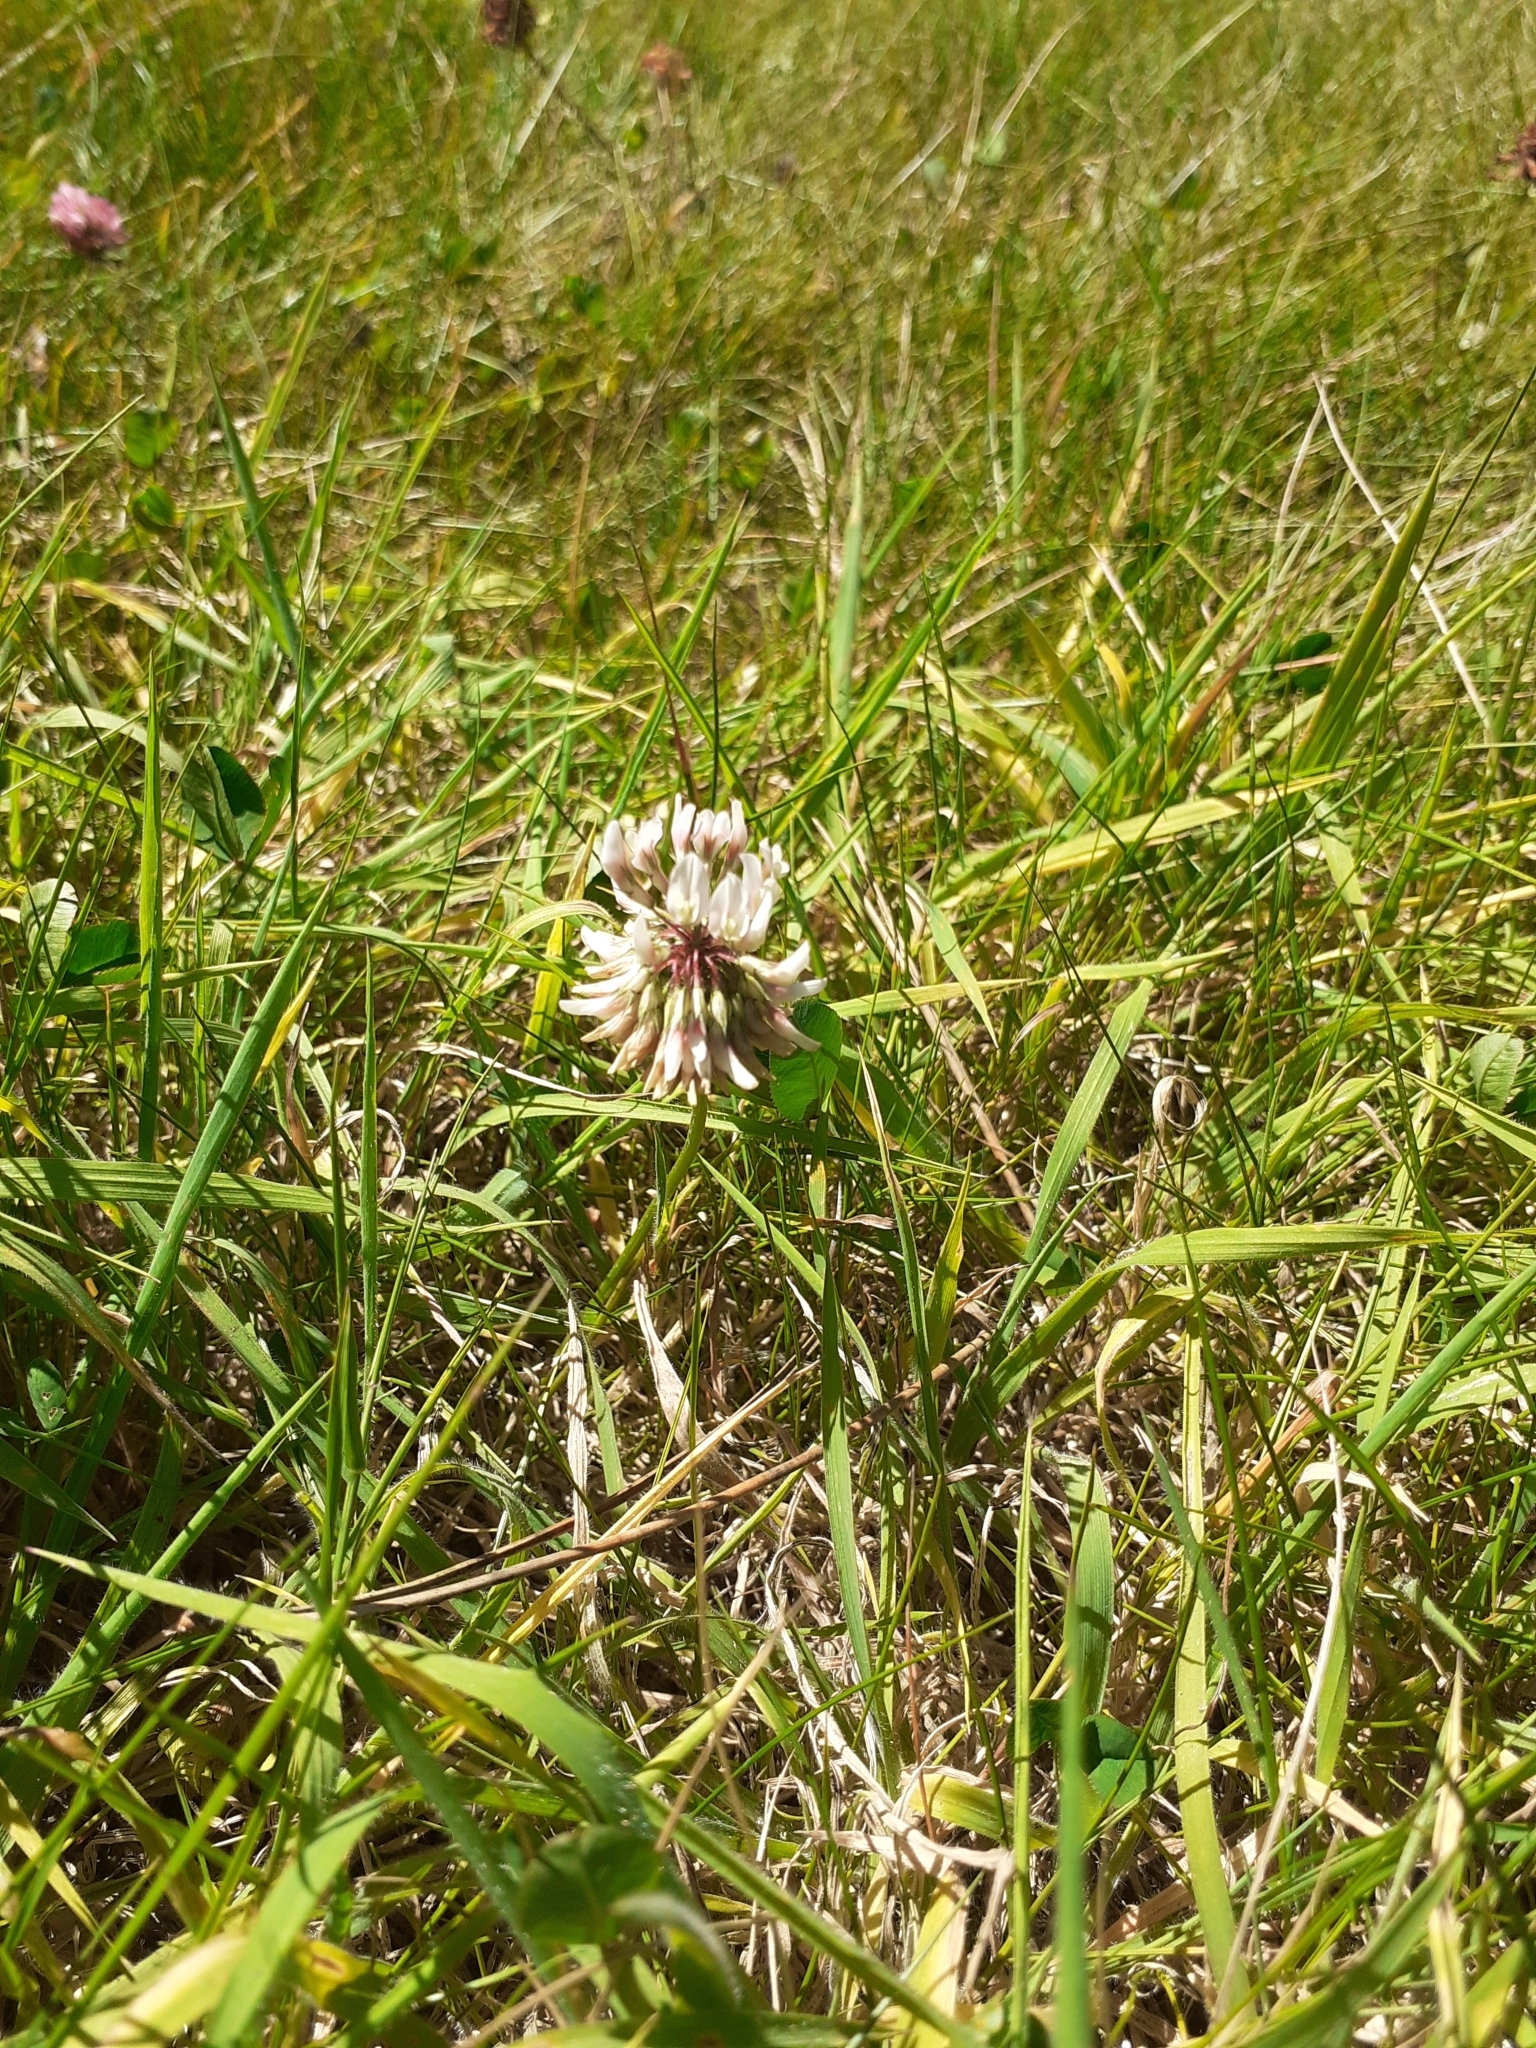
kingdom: Plantae
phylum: Tracheophyta
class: Magnoliopsida
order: Fabales
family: Fabaceae
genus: Trifolium
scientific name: Trifolium repens
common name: White clover
